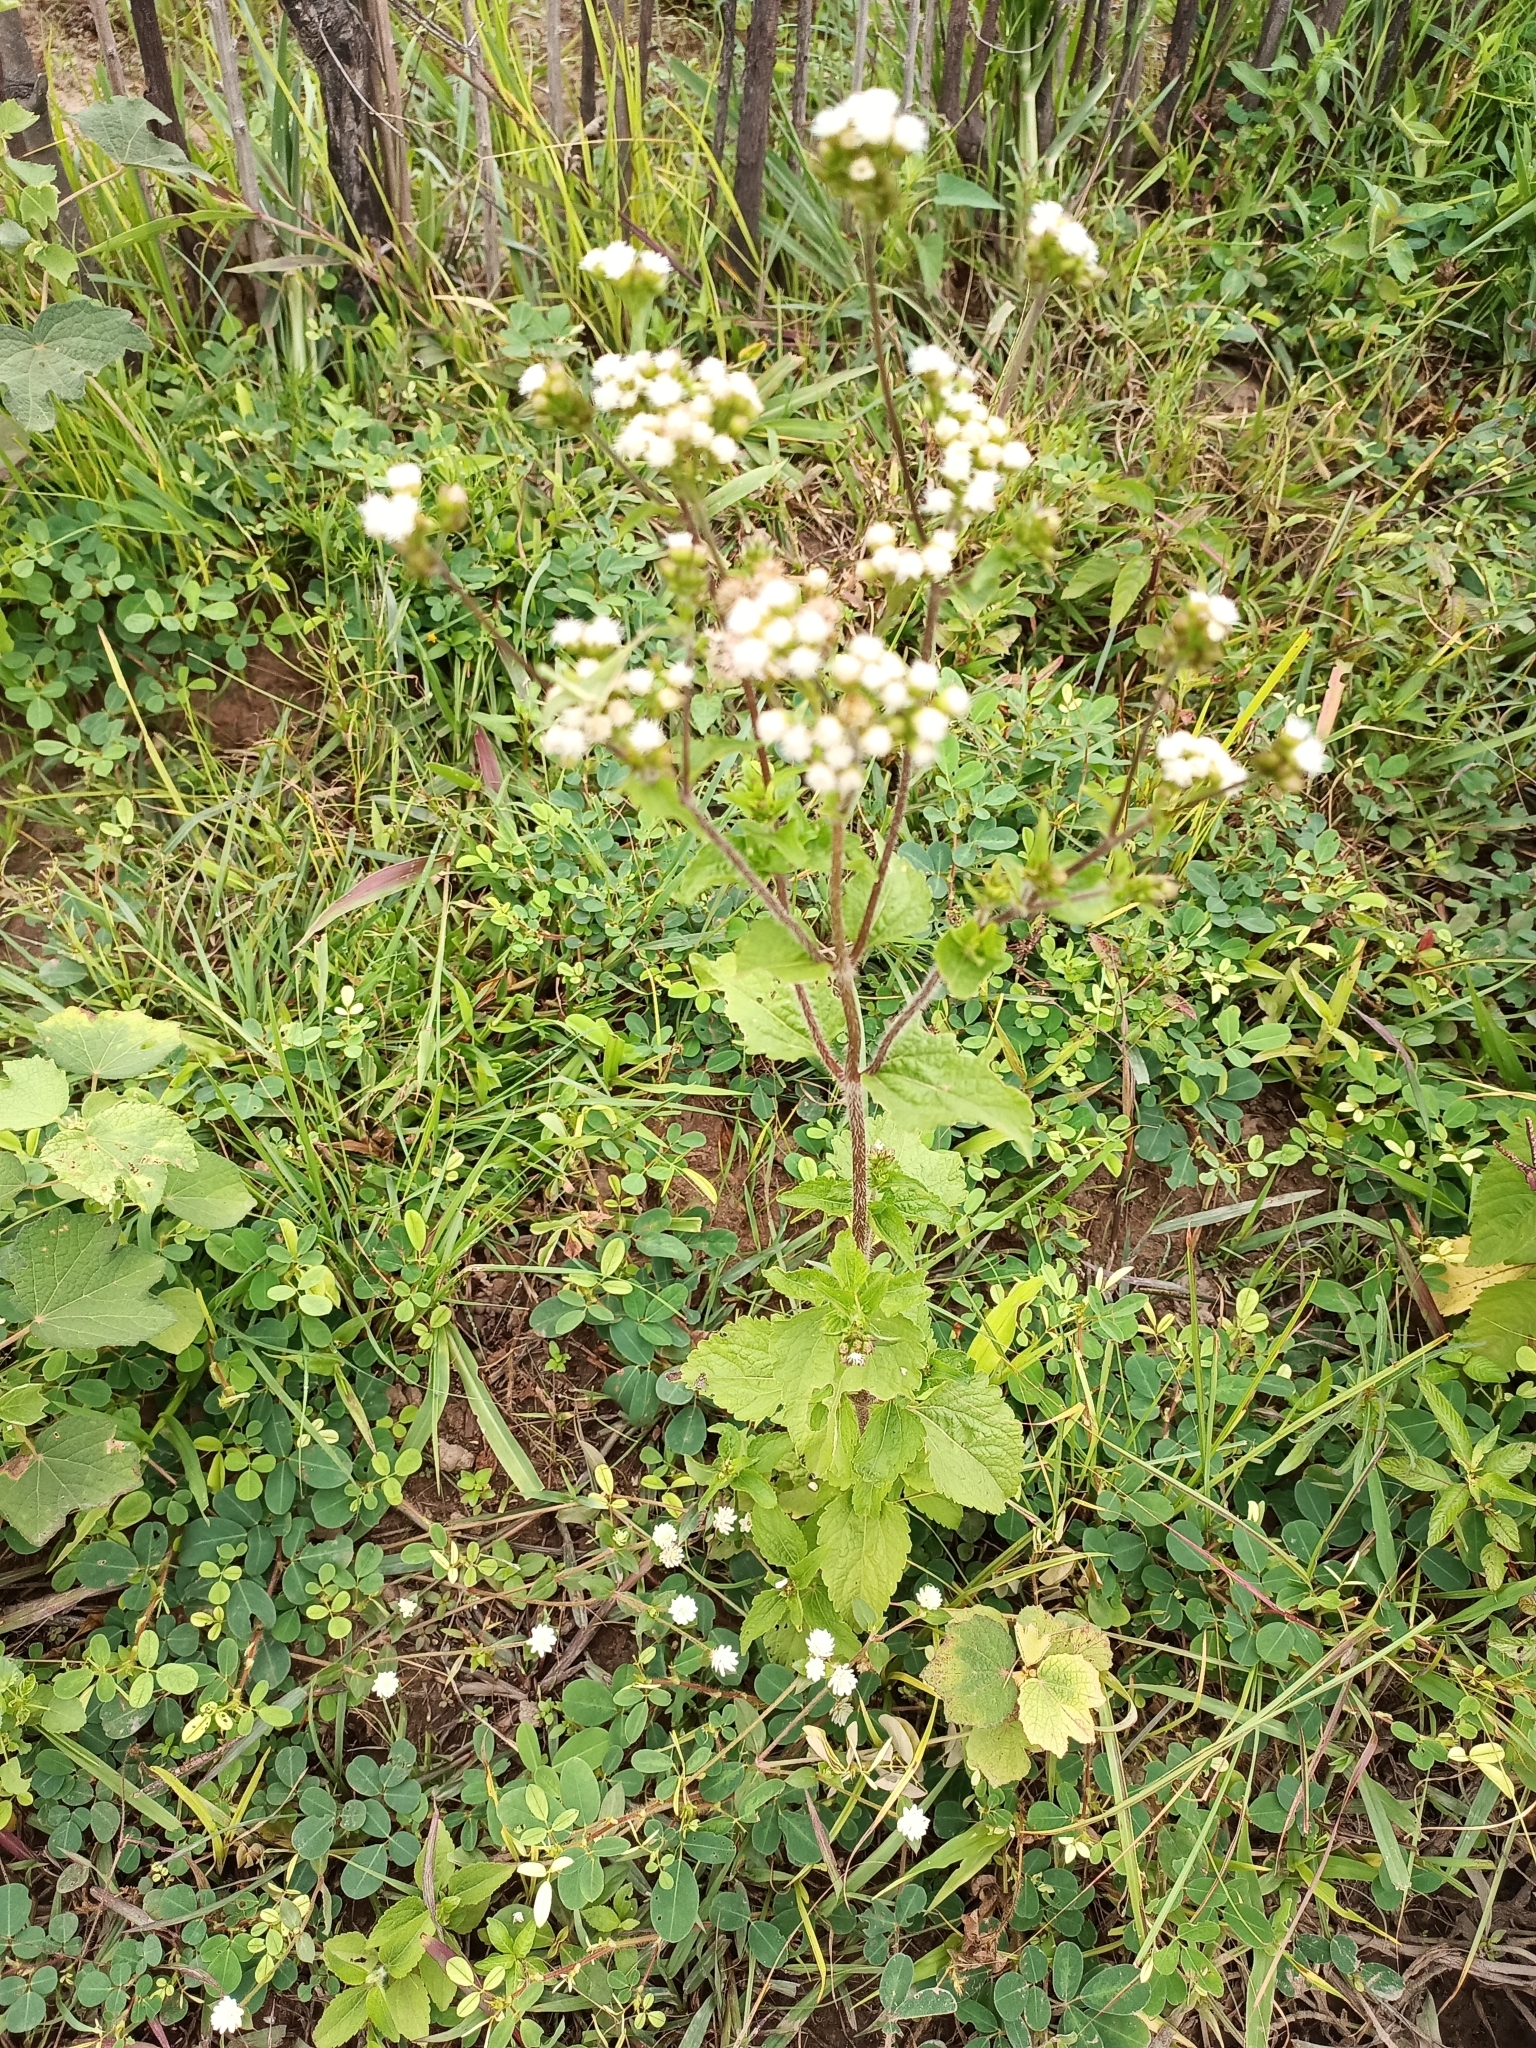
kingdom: Plantae
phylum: Tracheophyta
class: Magnoliopsida
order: Asterales
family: Asteraceae
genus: Ageratum
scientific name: Ageratum conyzoides
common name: Tropical whiteweed
